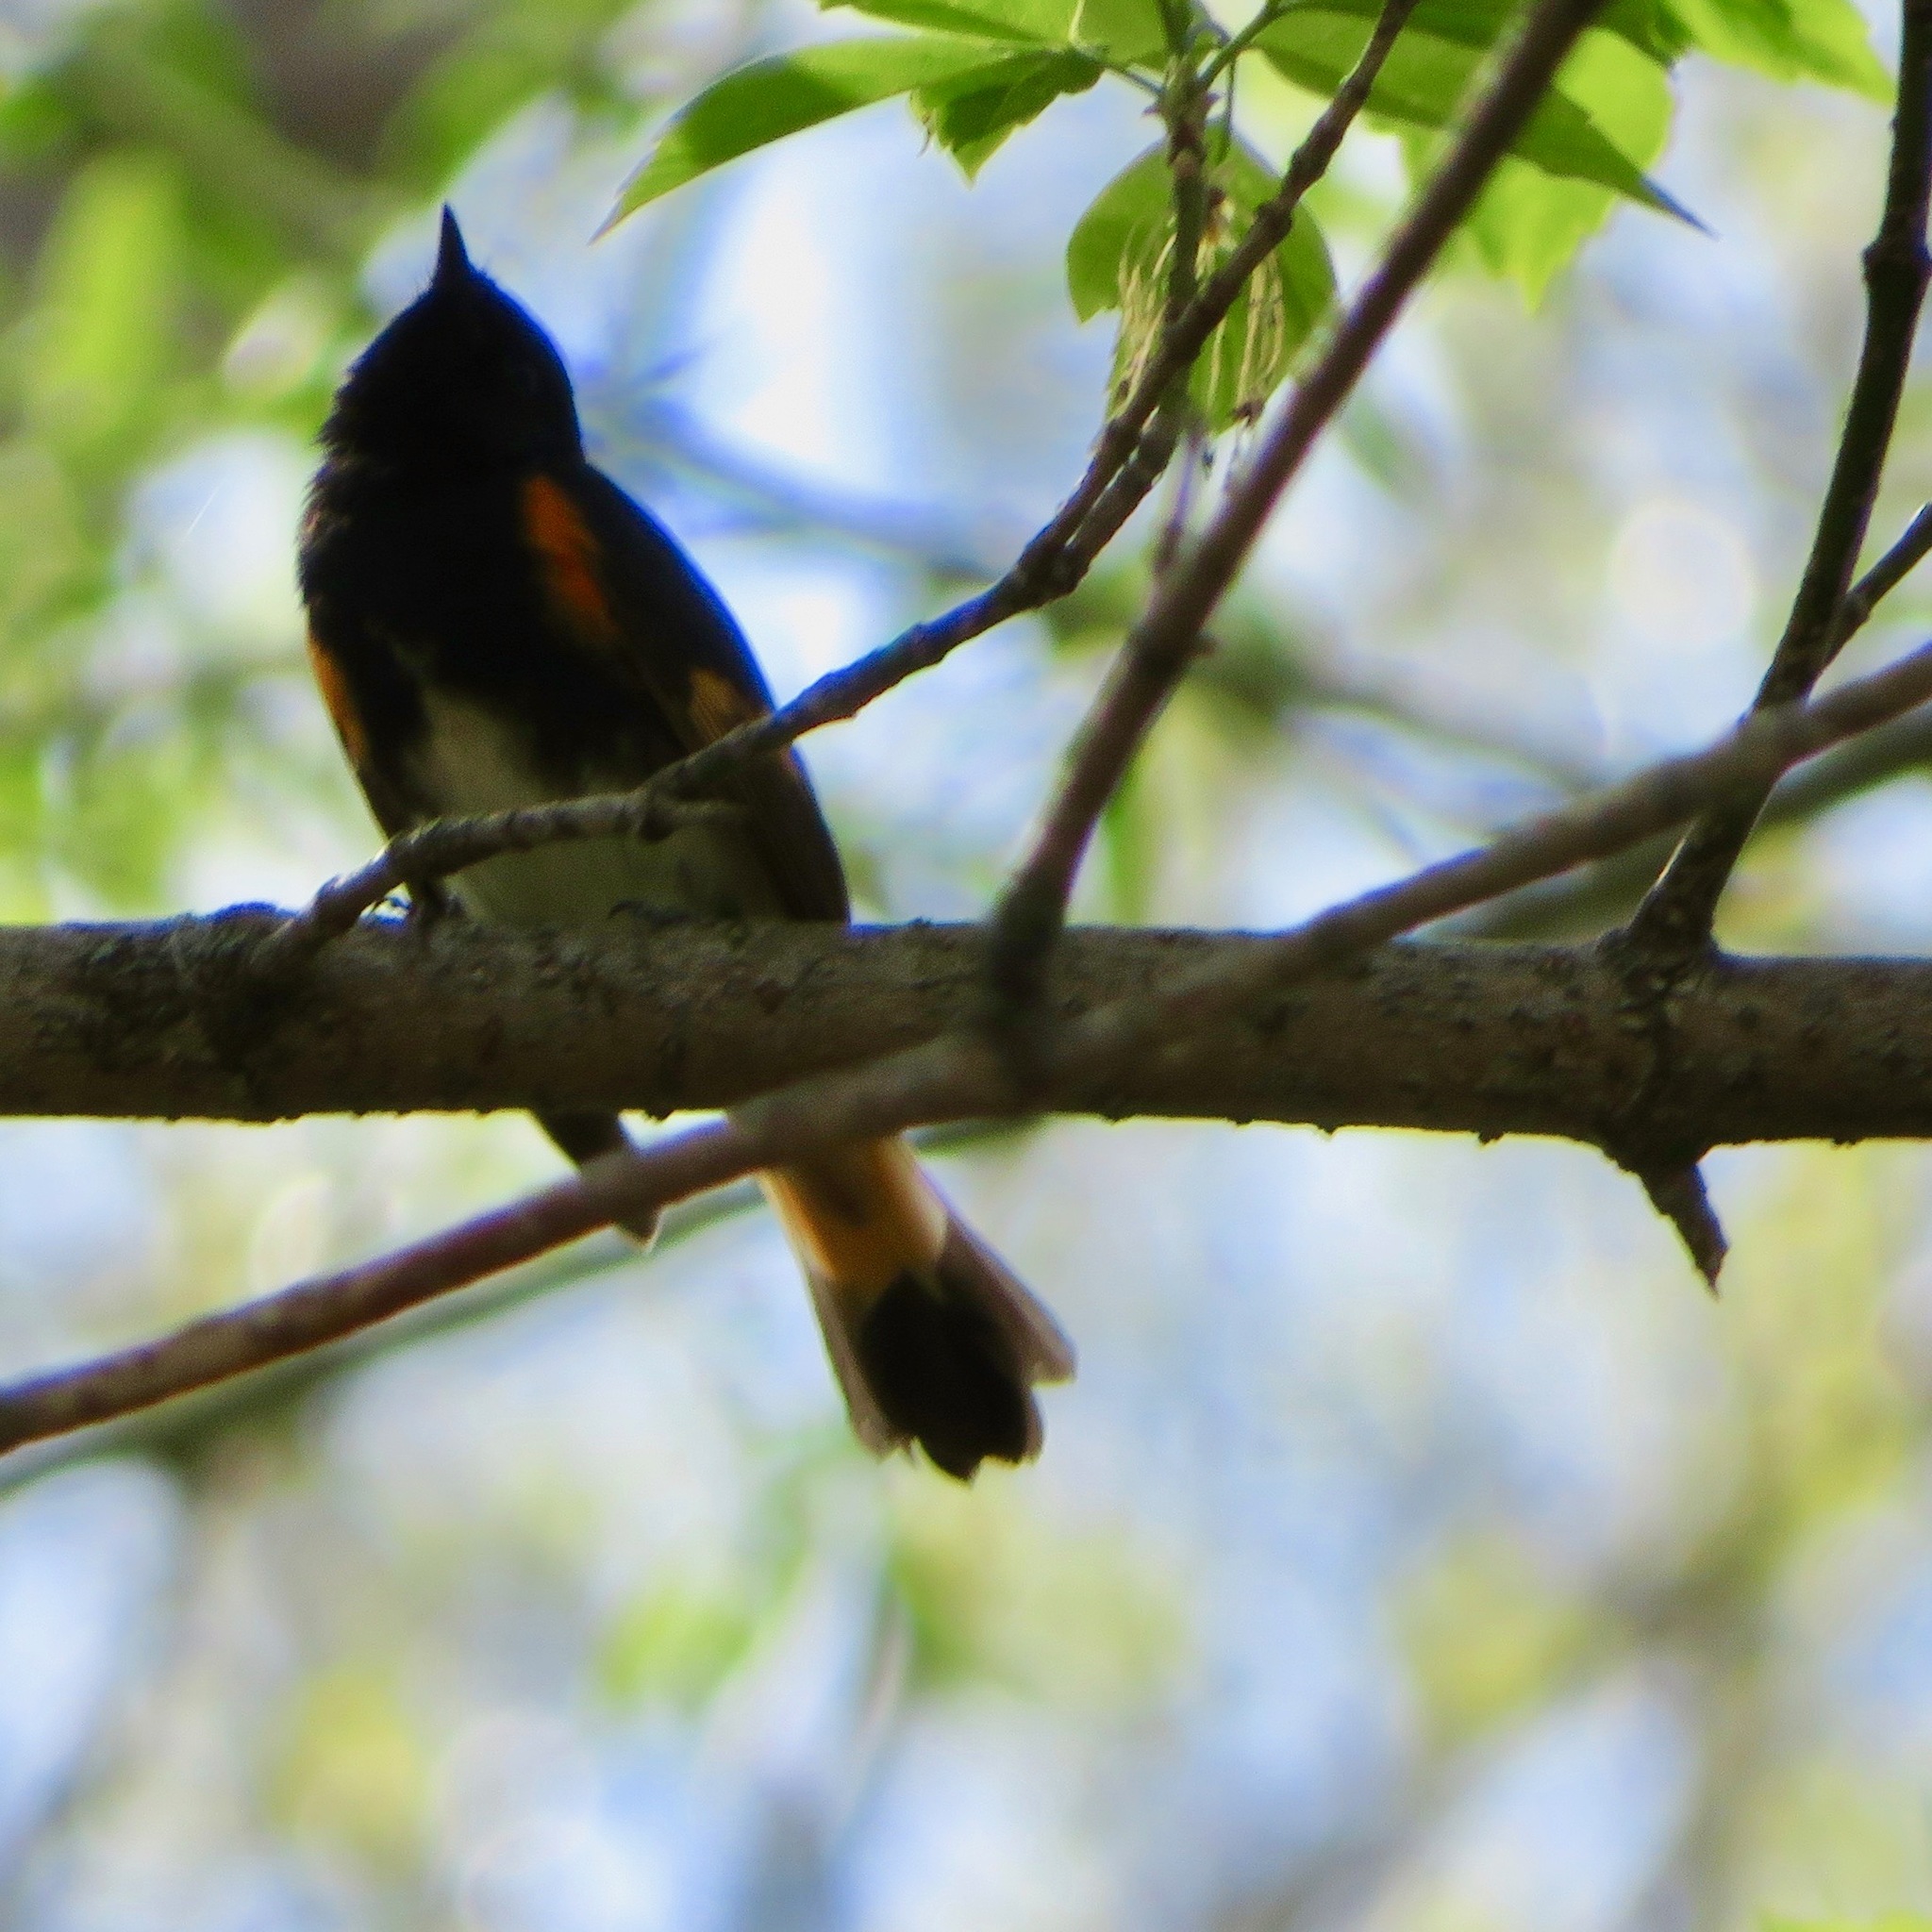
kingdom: Animalia
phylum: Chordata
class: Aves
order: Passeriformes
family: Parulidae
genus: Setophaga
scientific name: Setophaga ruticilla
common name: American redstart
